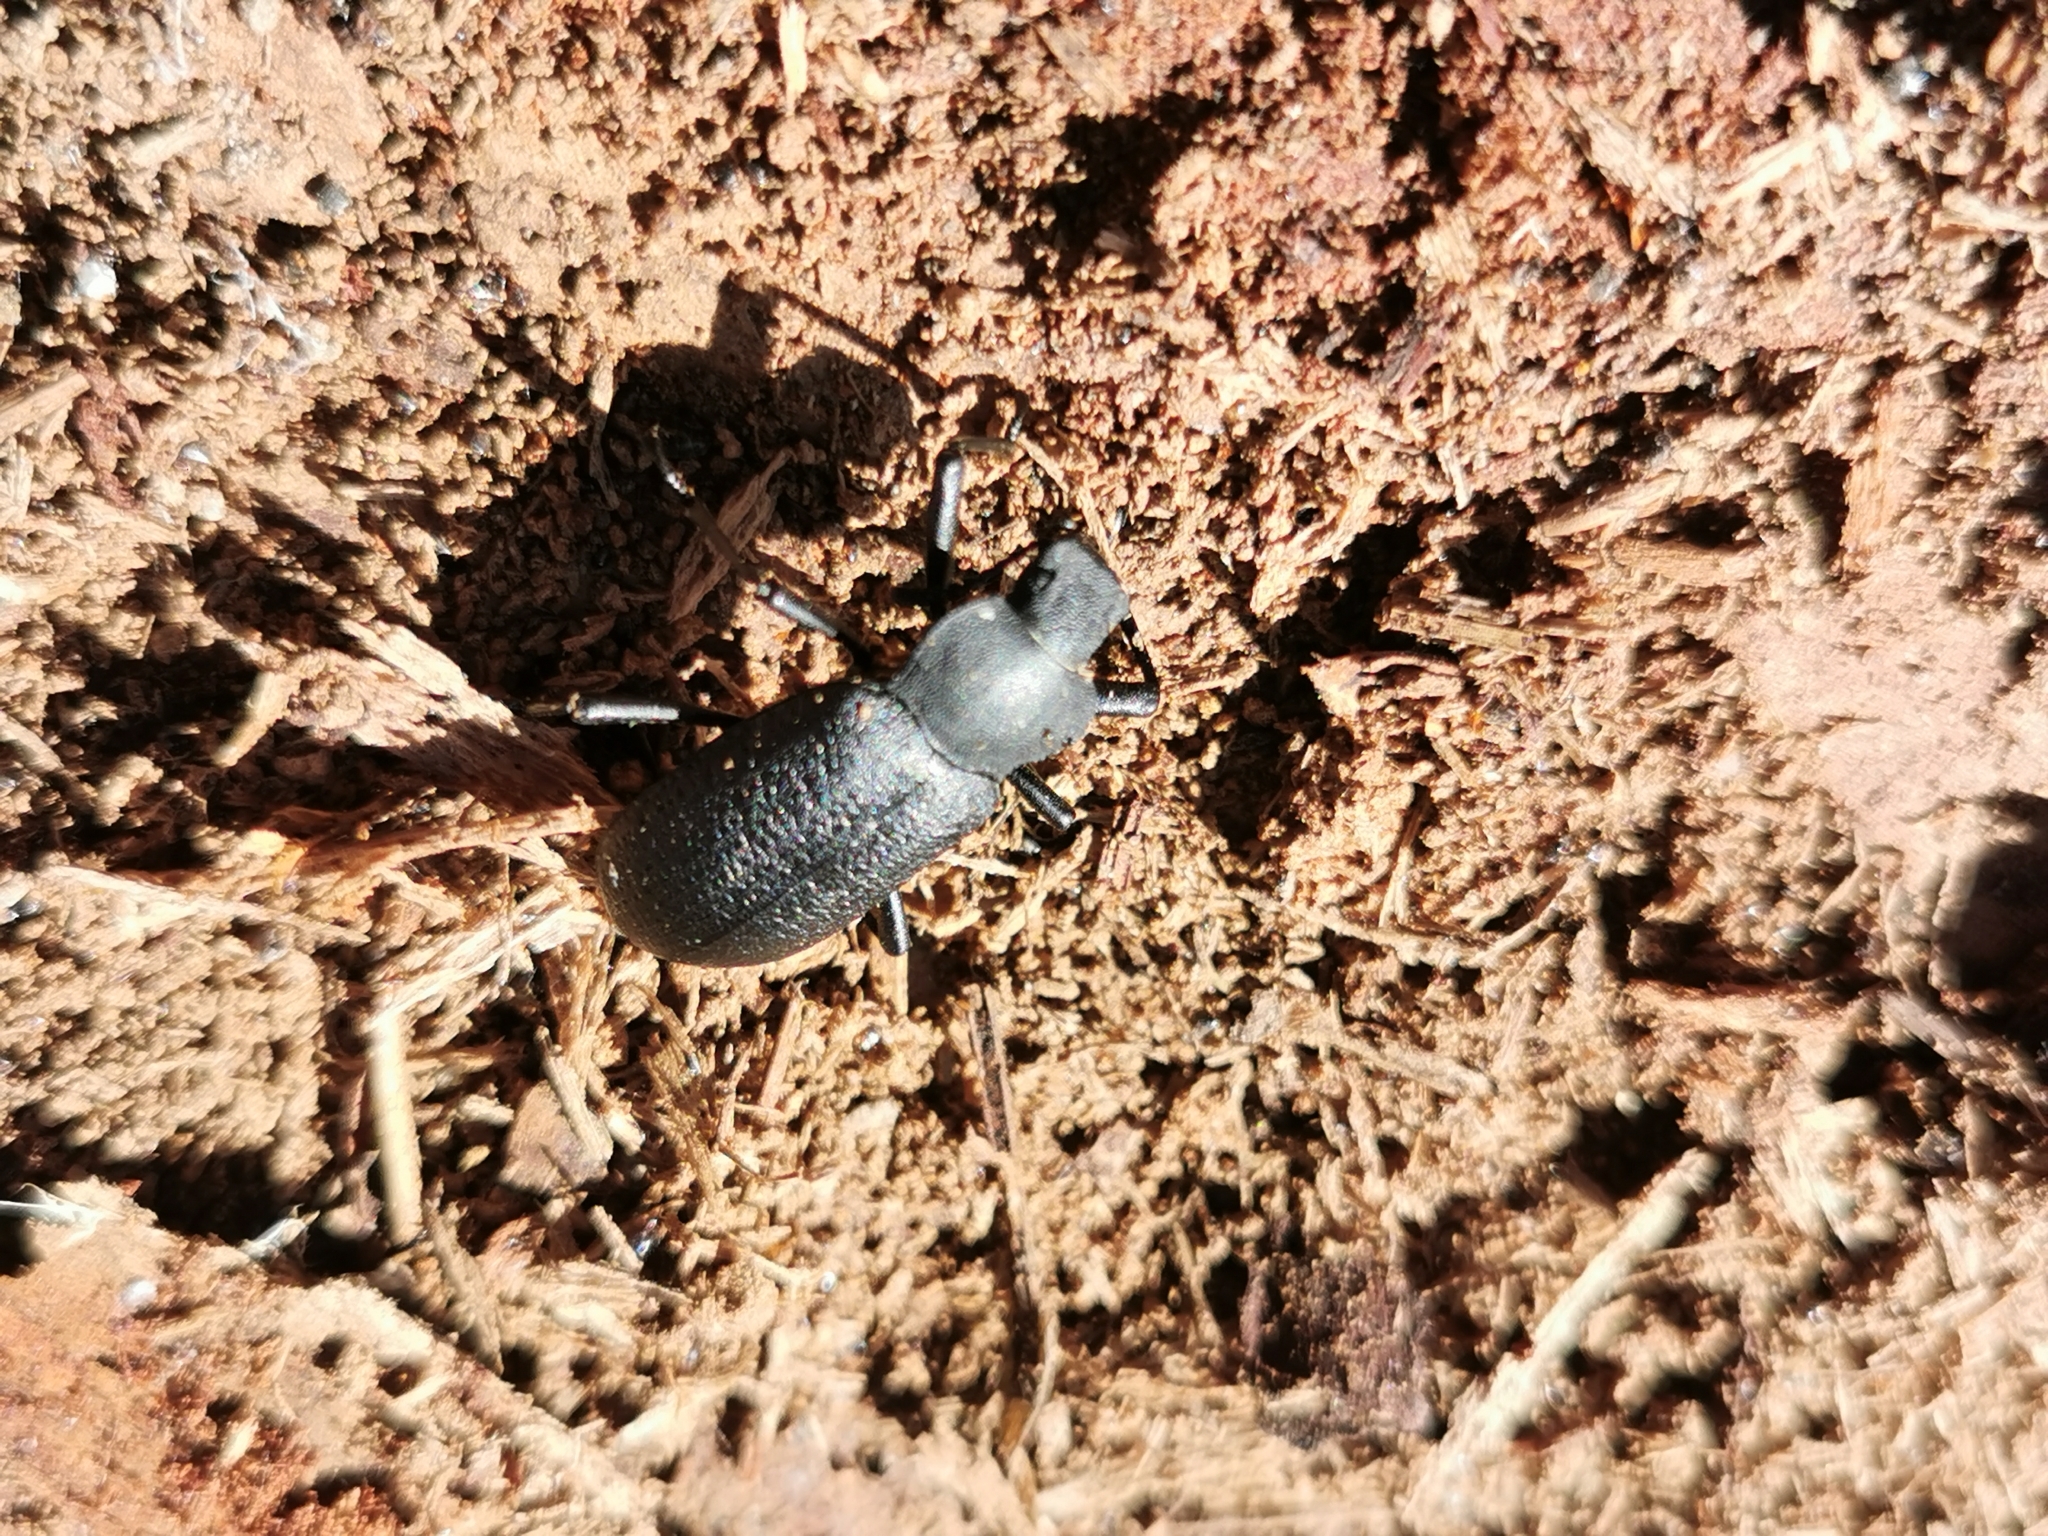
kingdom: Animalia
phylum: Arthropoda
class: Insecta
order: Coleoptera
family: Tenebrionidae
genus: Iphthiminus
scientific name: Iphthiminus serratus
